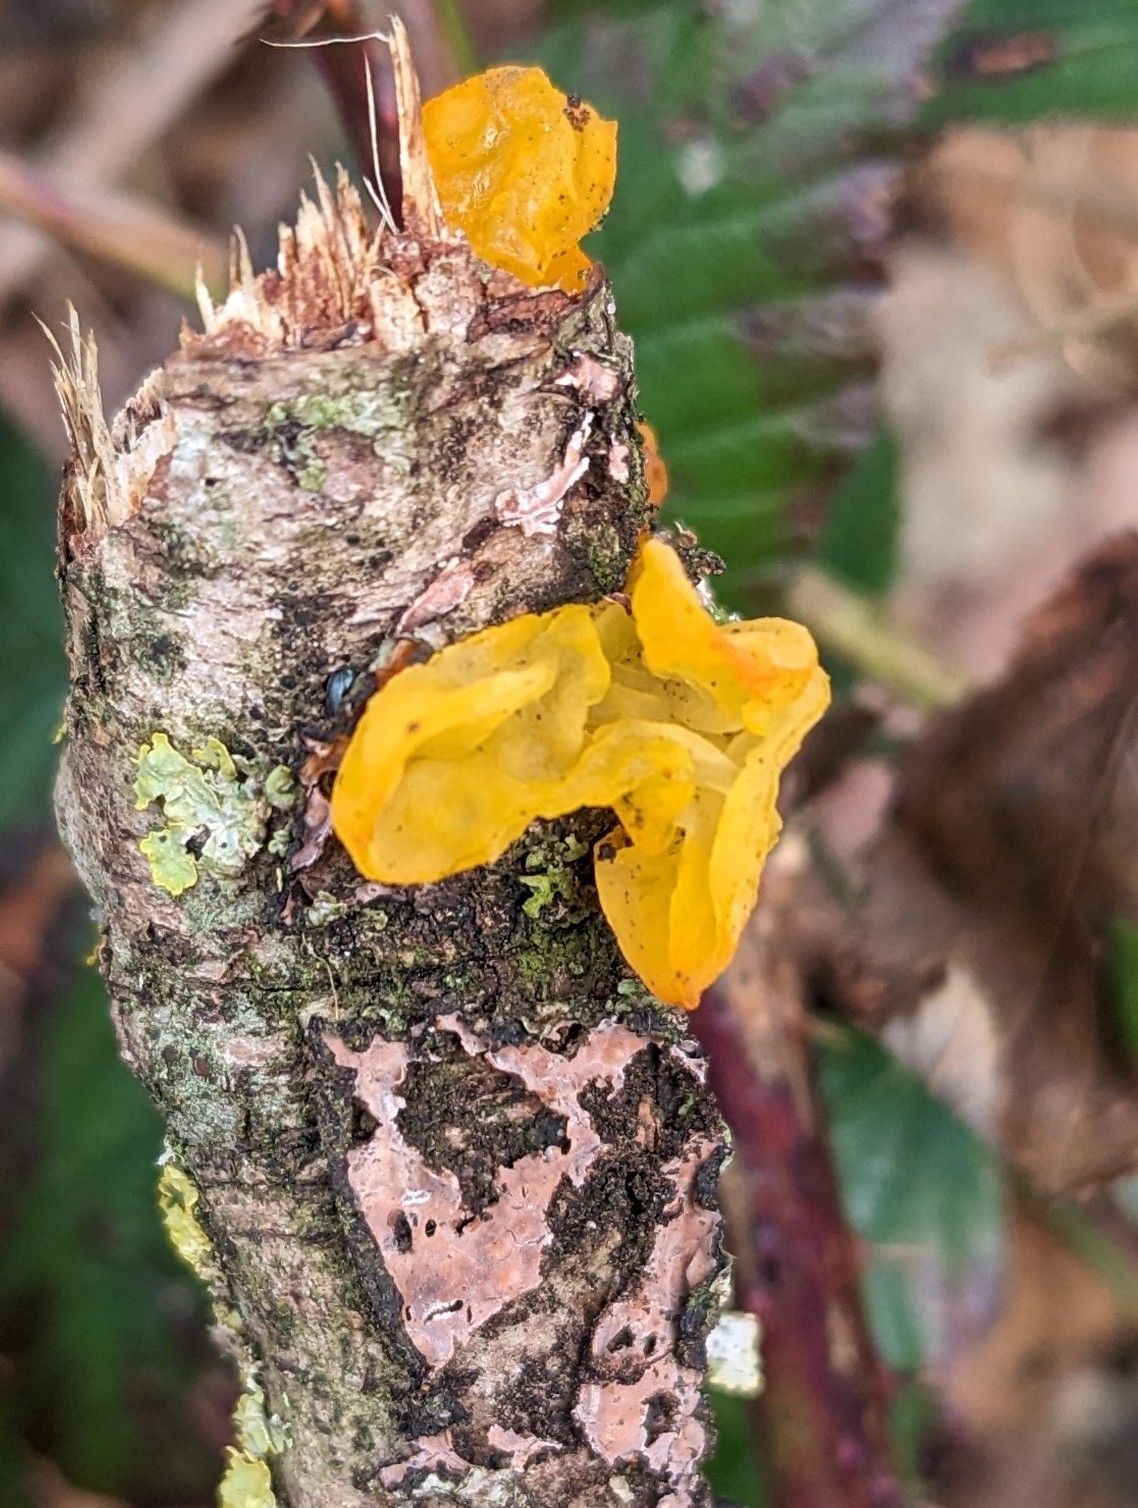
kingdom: Fungi
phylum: Basidiomycota
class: Tremellomycetes
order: Tremellales
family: Tremellaceae
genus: Tremella
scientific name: Tremella mesenterica
